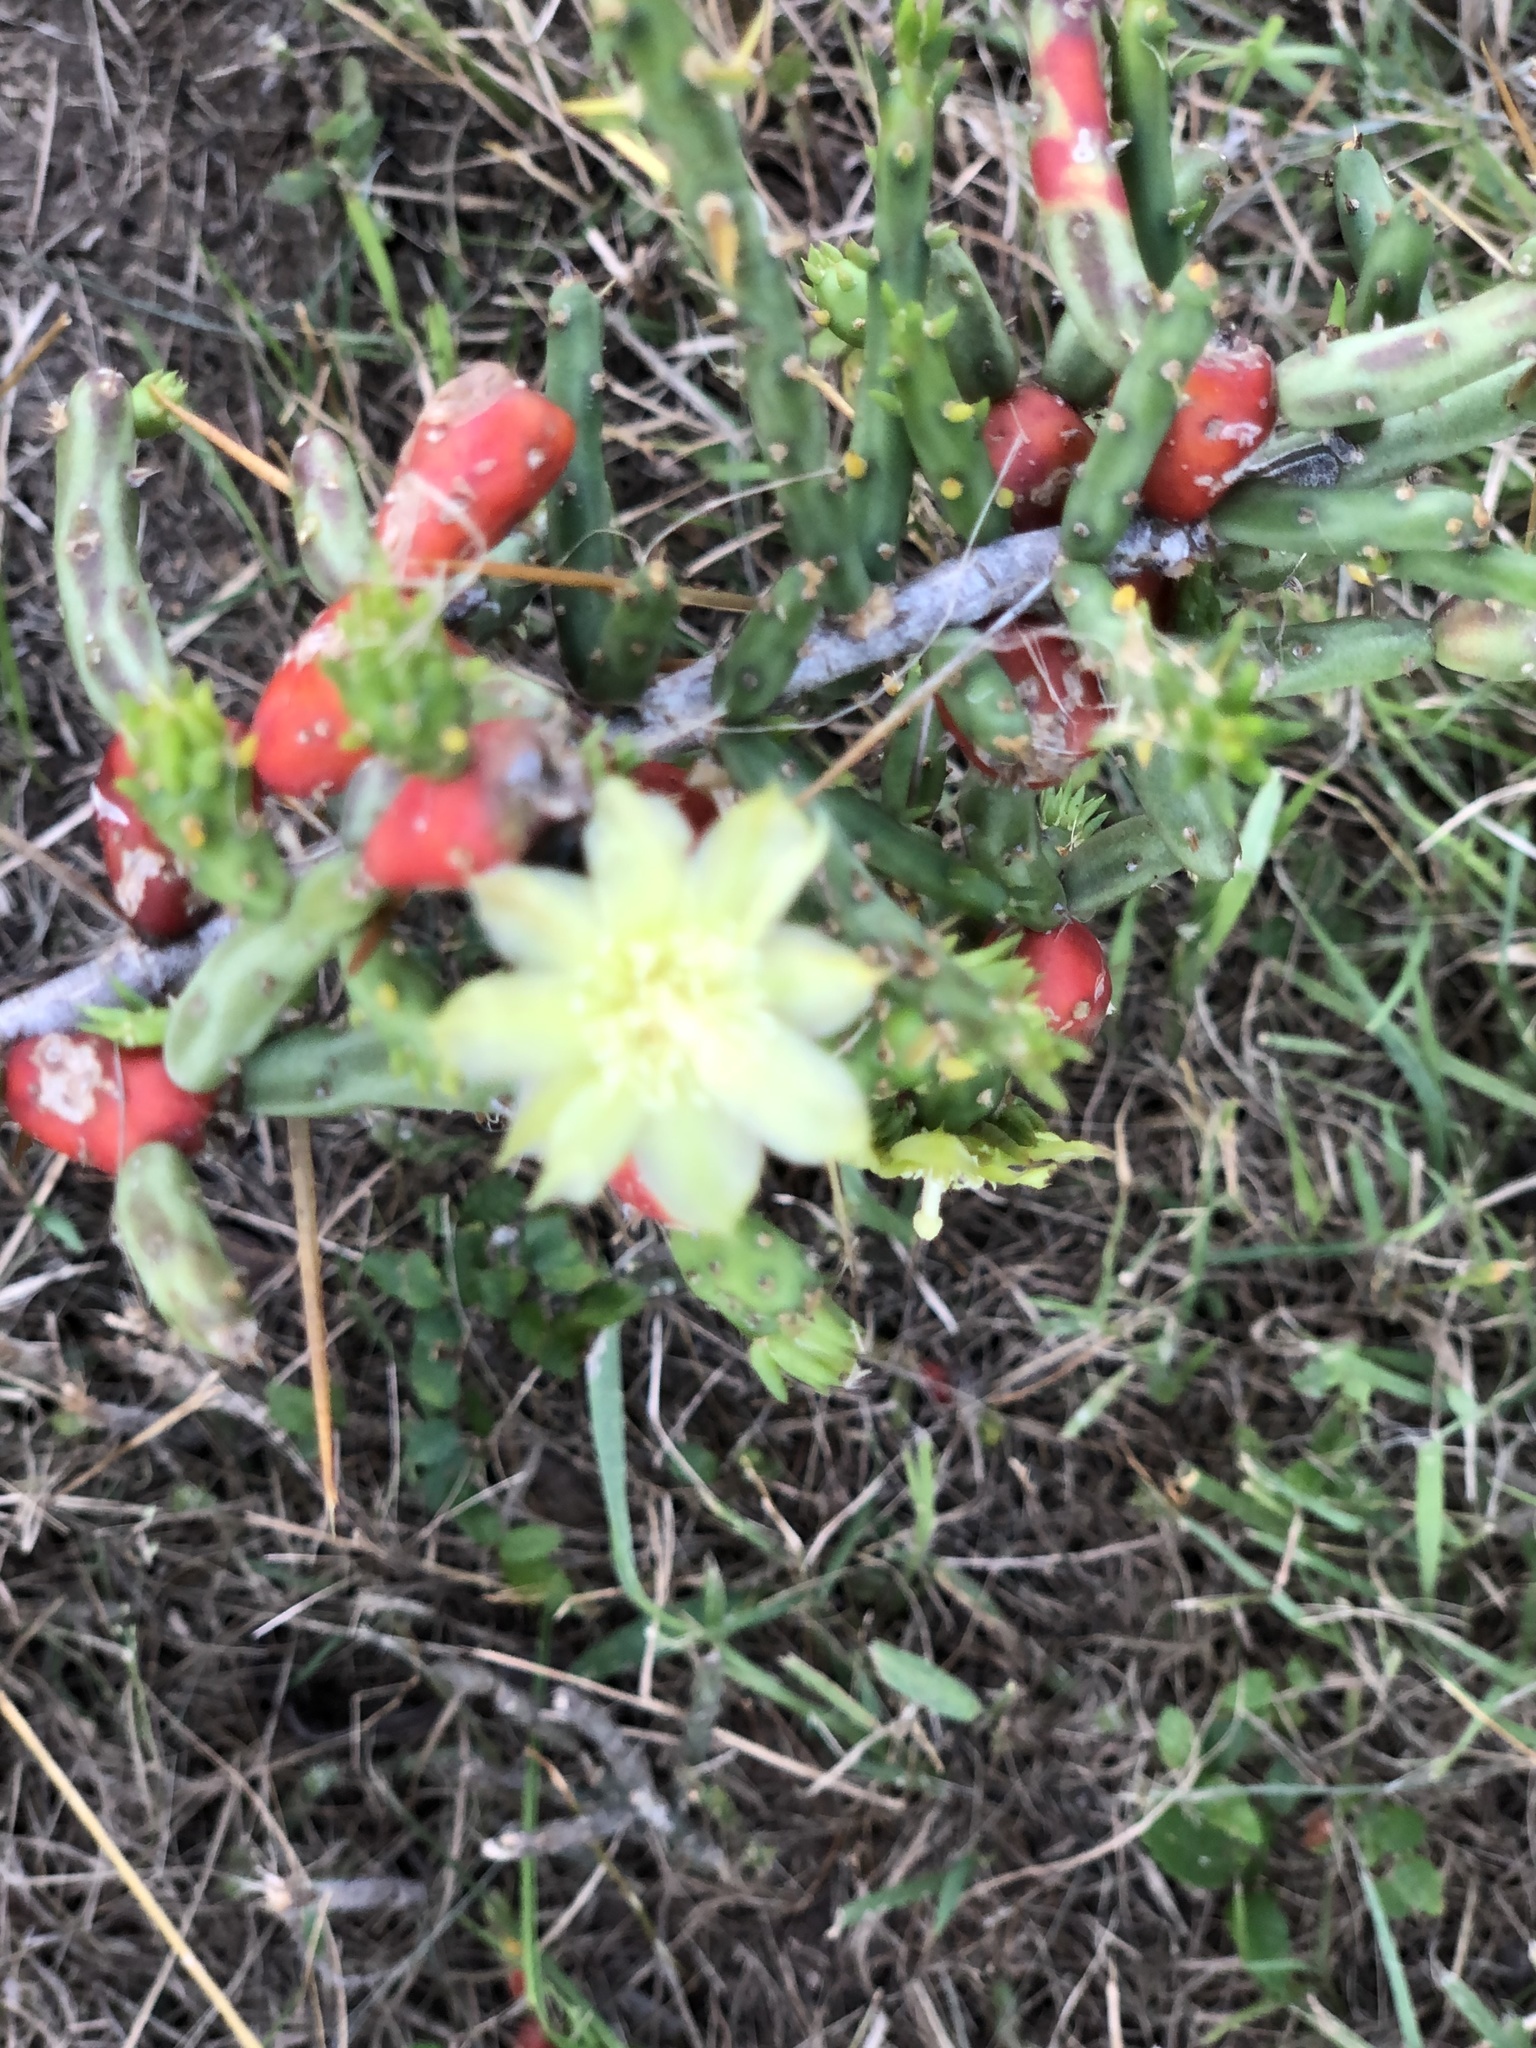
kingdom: Plantae
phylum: Tracheophyta
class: Magnoliopsida
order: Caryophyllales
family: Cactaceae
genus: Cylindropuntia
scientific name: Cylindropuntia leptocaulis
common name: Christmas cactus
